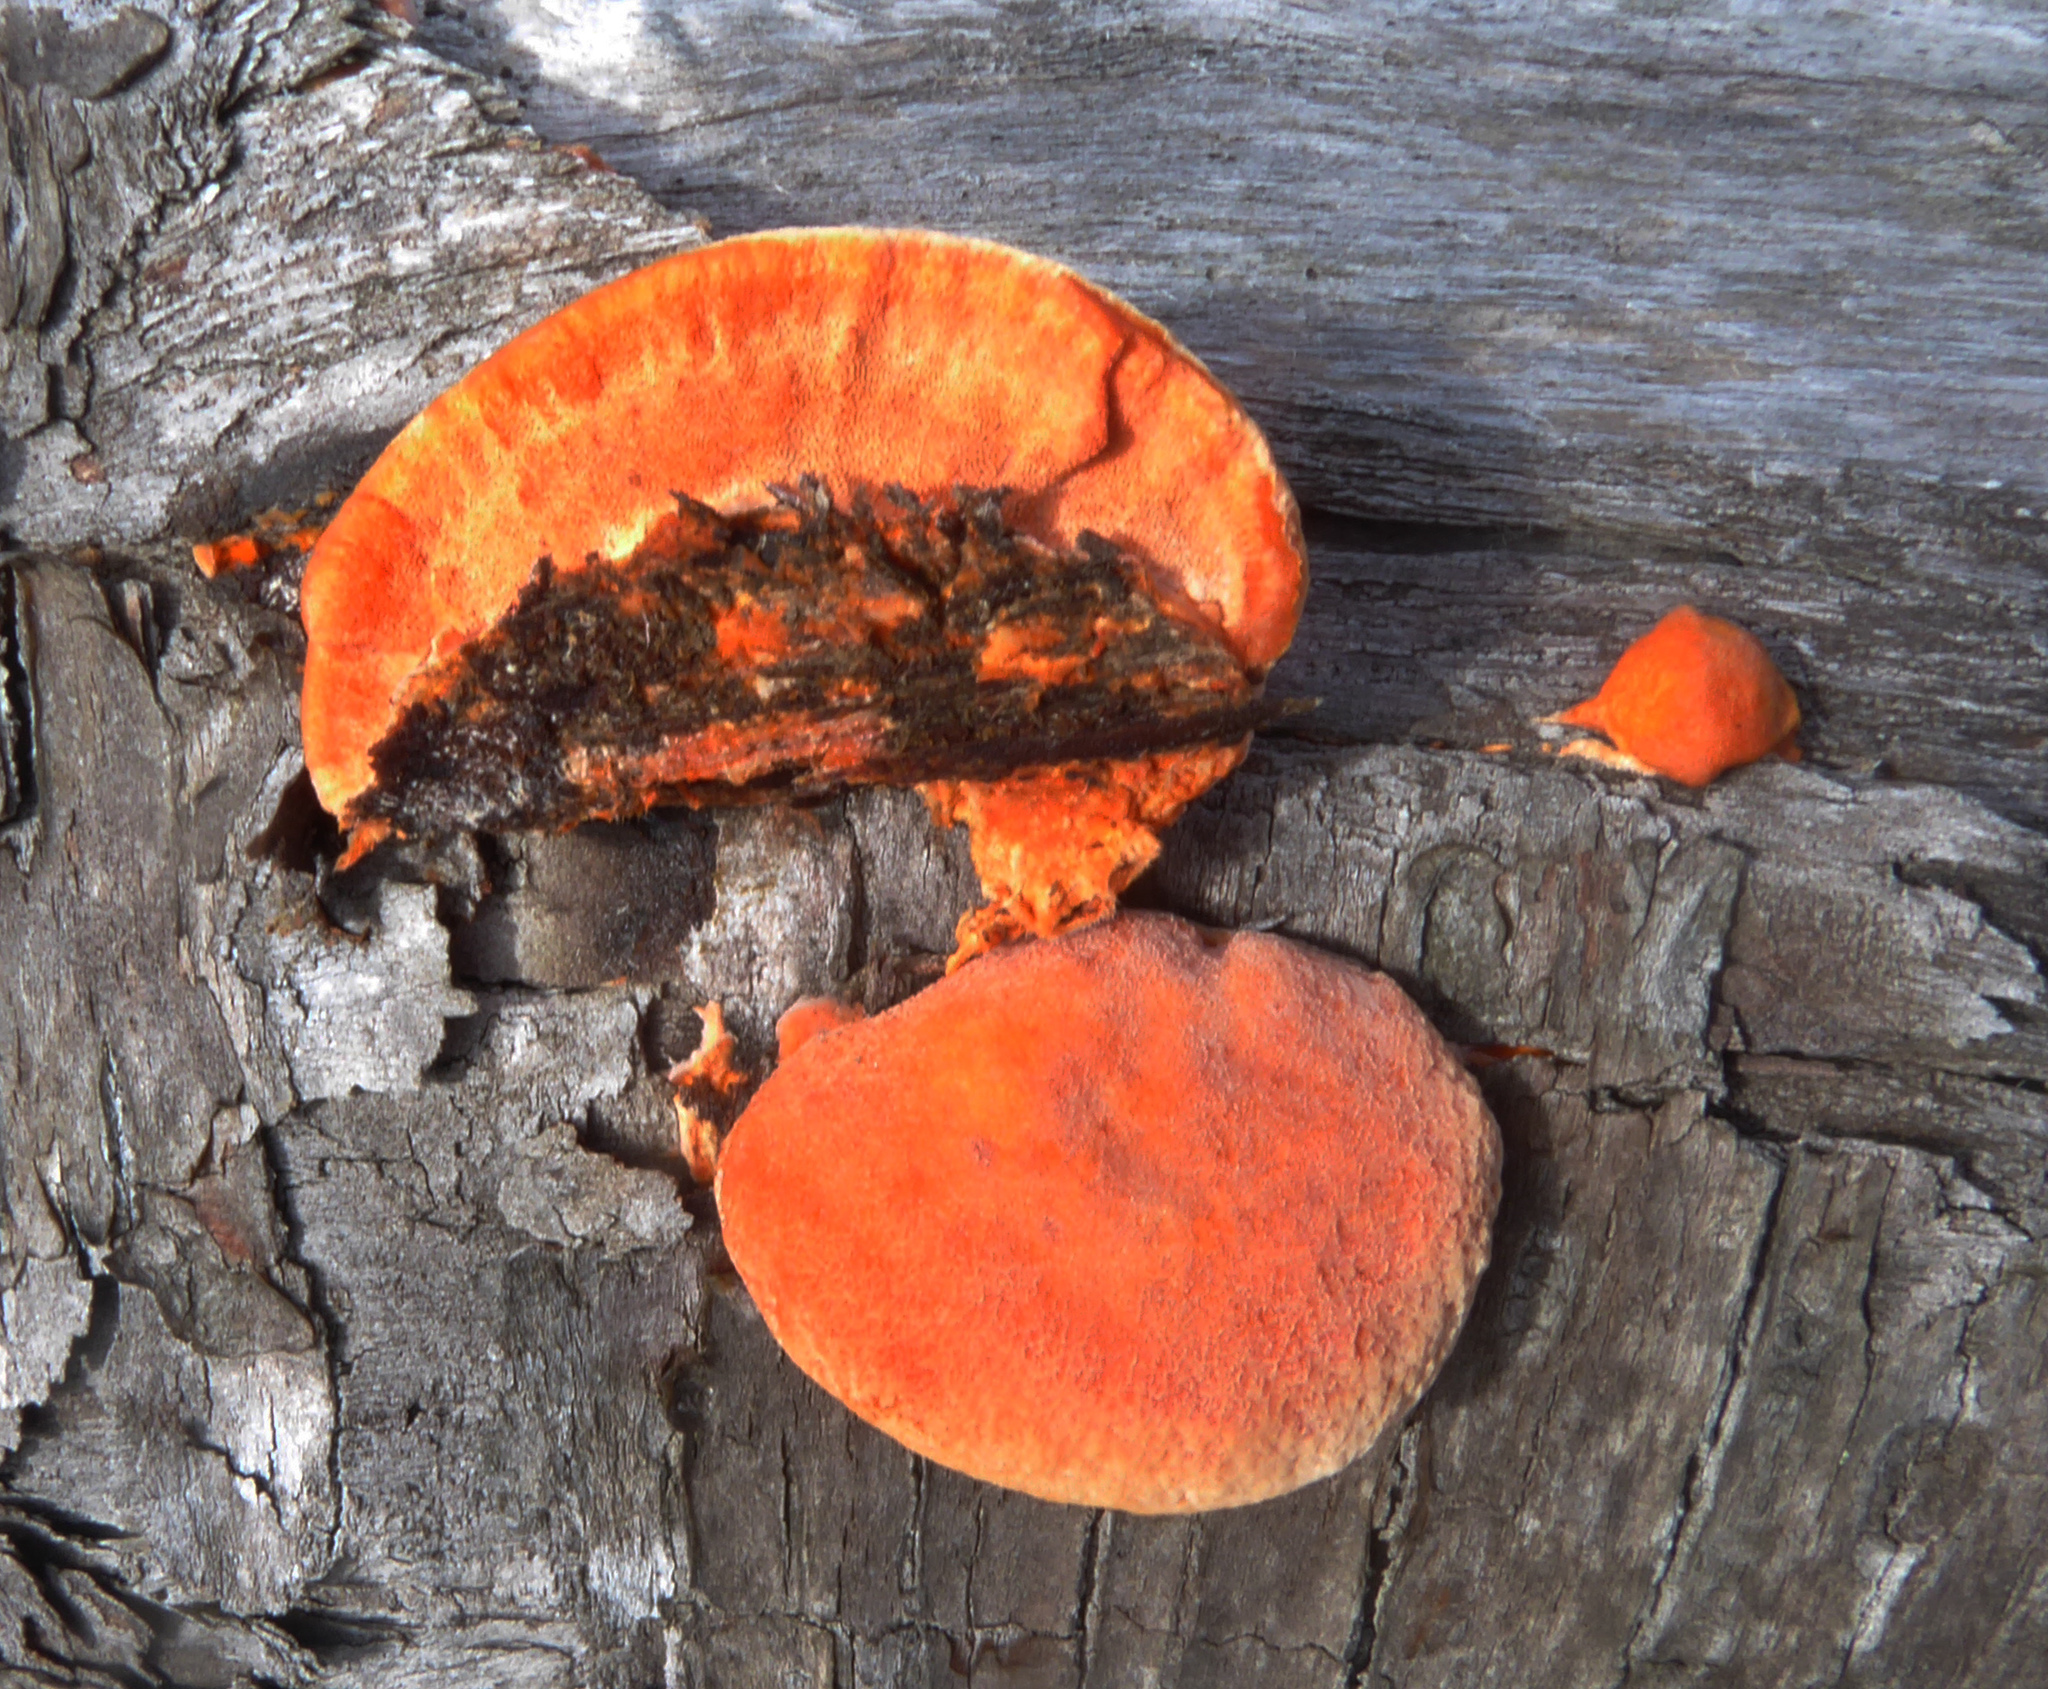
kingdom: Fungi
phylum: Basidiomycota
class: Agaricomycetes
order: Polyporales
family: Polyporaceae
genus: Trametes
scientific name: Trametes coccinea
